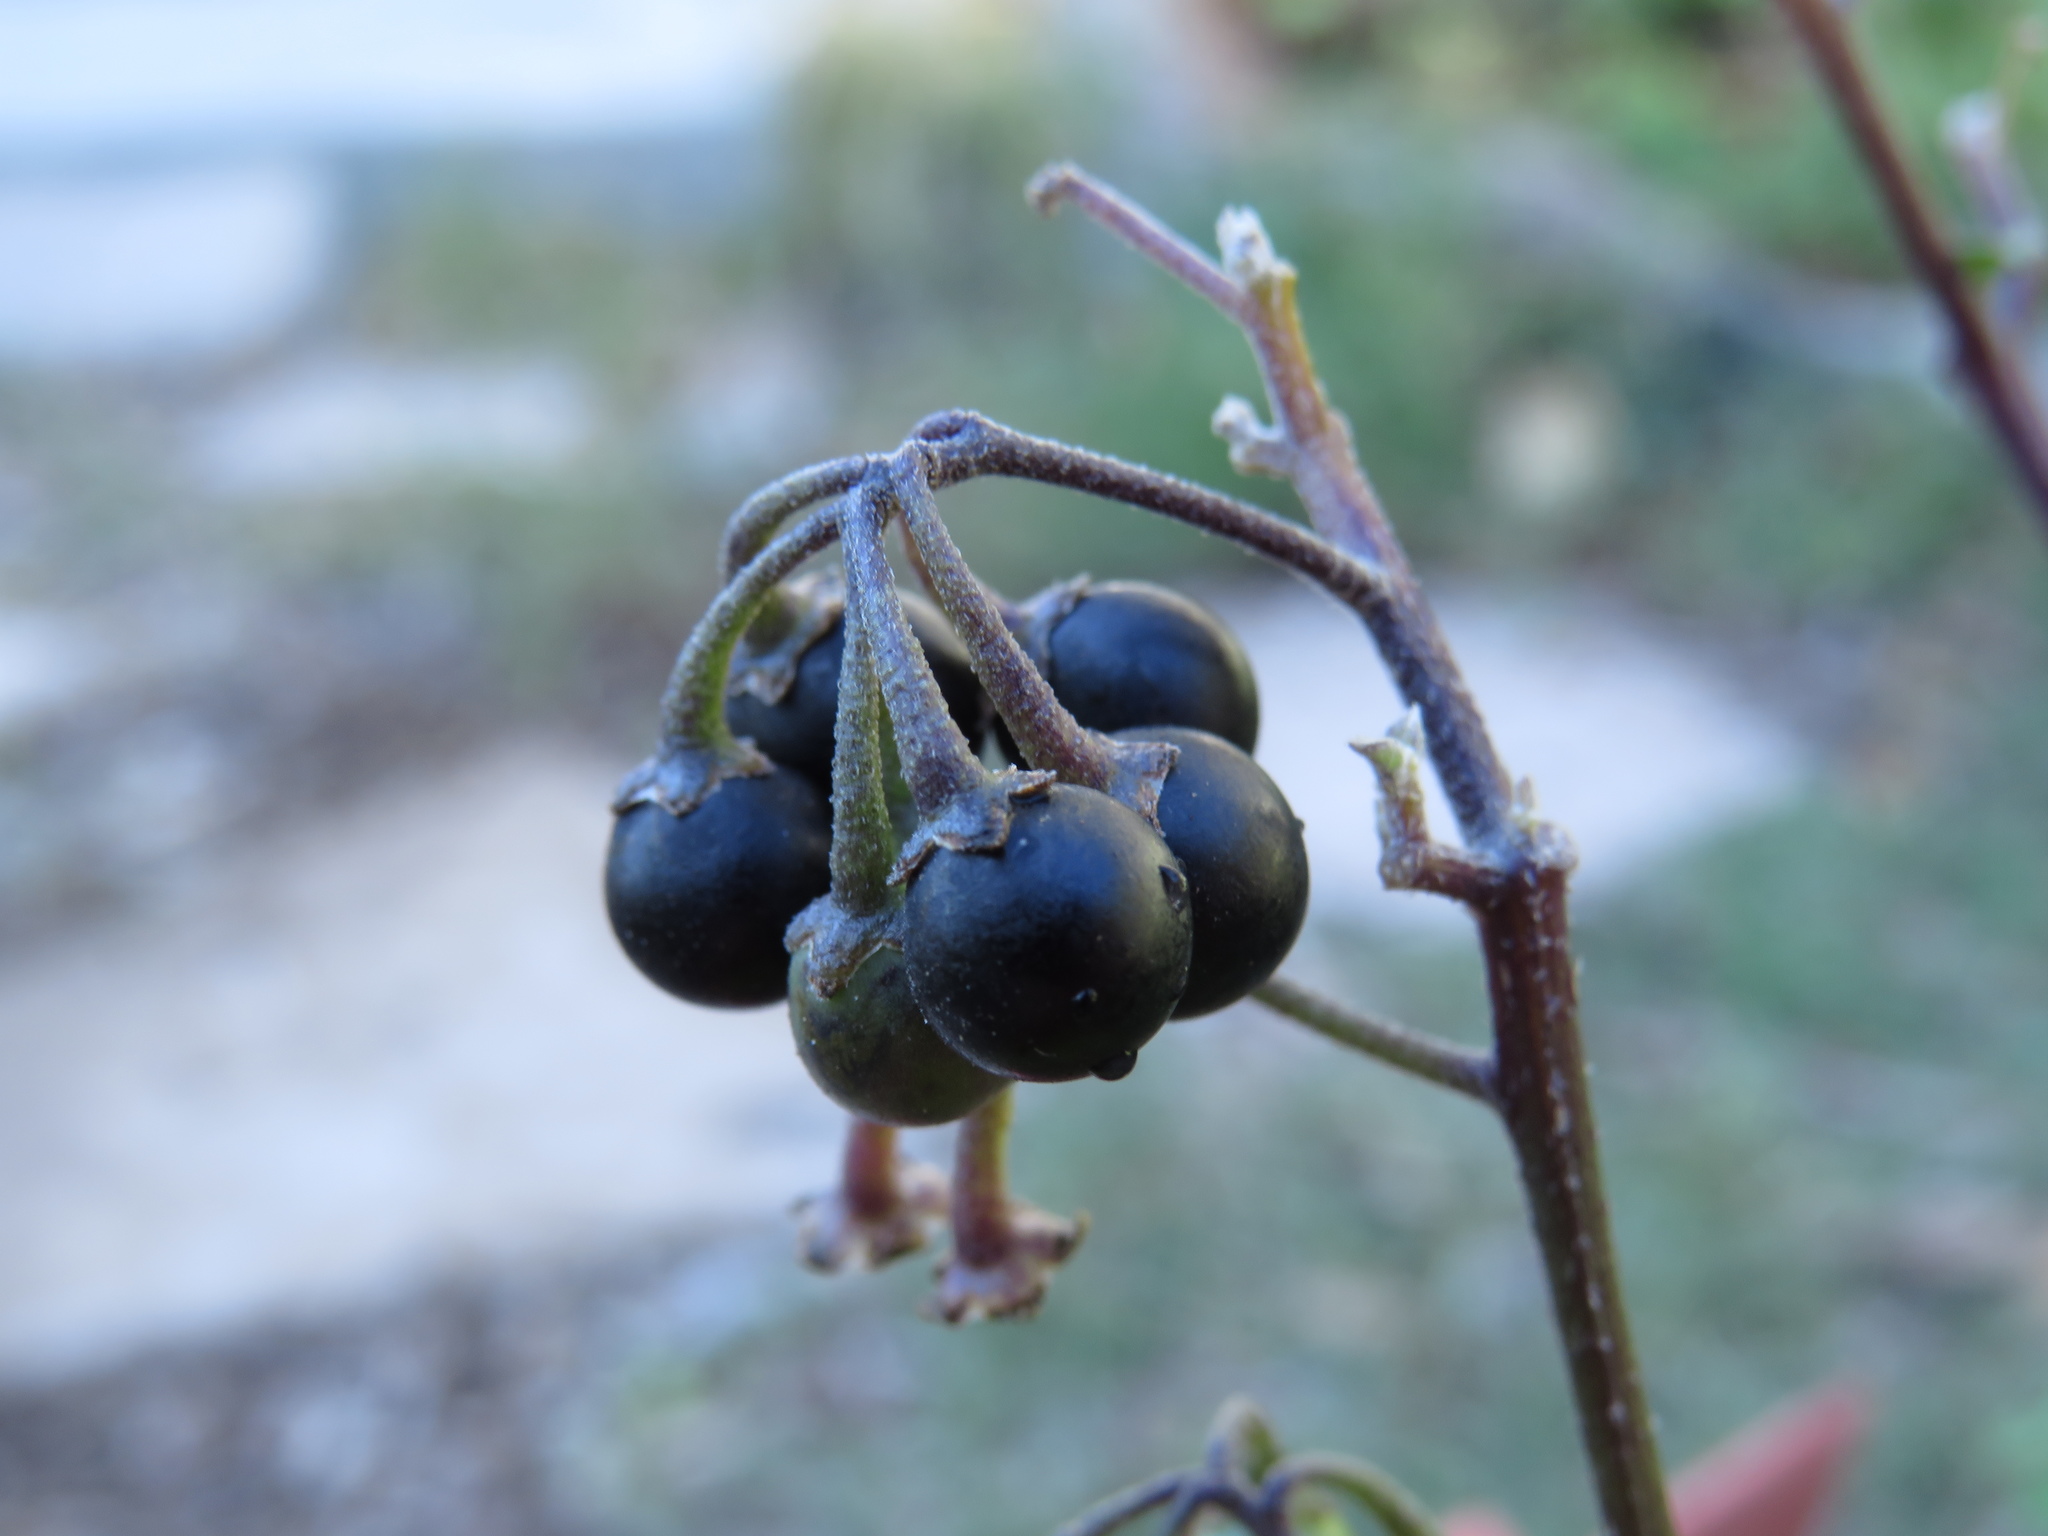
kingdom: Plantae
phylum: Tracheophyta
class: Magnoliopsida
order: Solanales
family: Solanaceae
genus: Solanum
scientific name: Solanum nigrum
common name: Black nightshade
